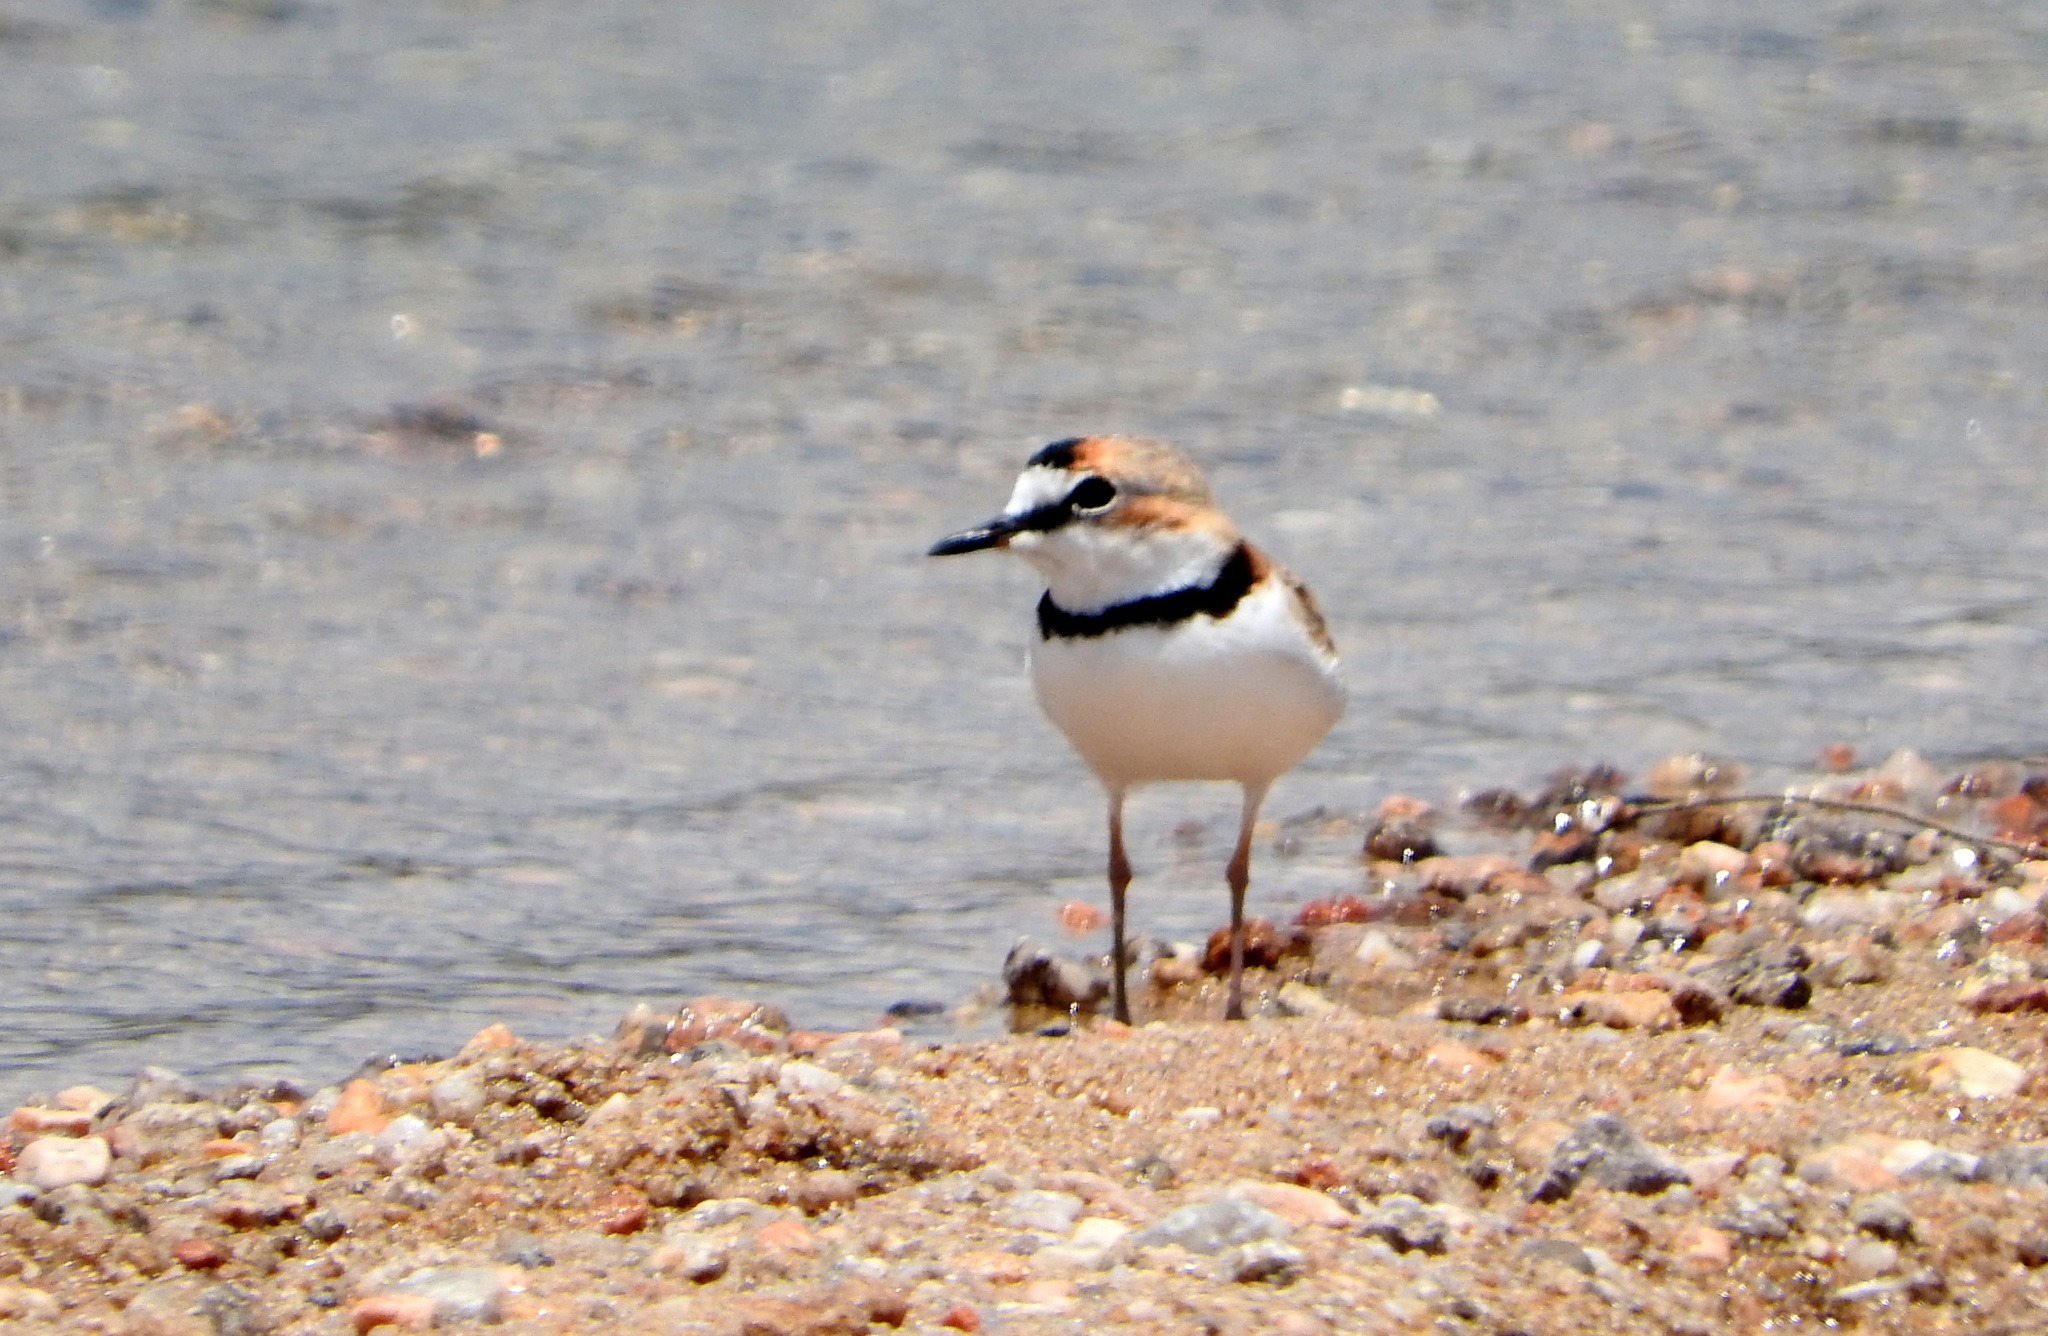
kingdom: Animalia
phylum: Chordata
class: Aves
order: Charadriiformes
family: Charadriidae
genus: Anarhynchus
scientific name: Anarhynchus
